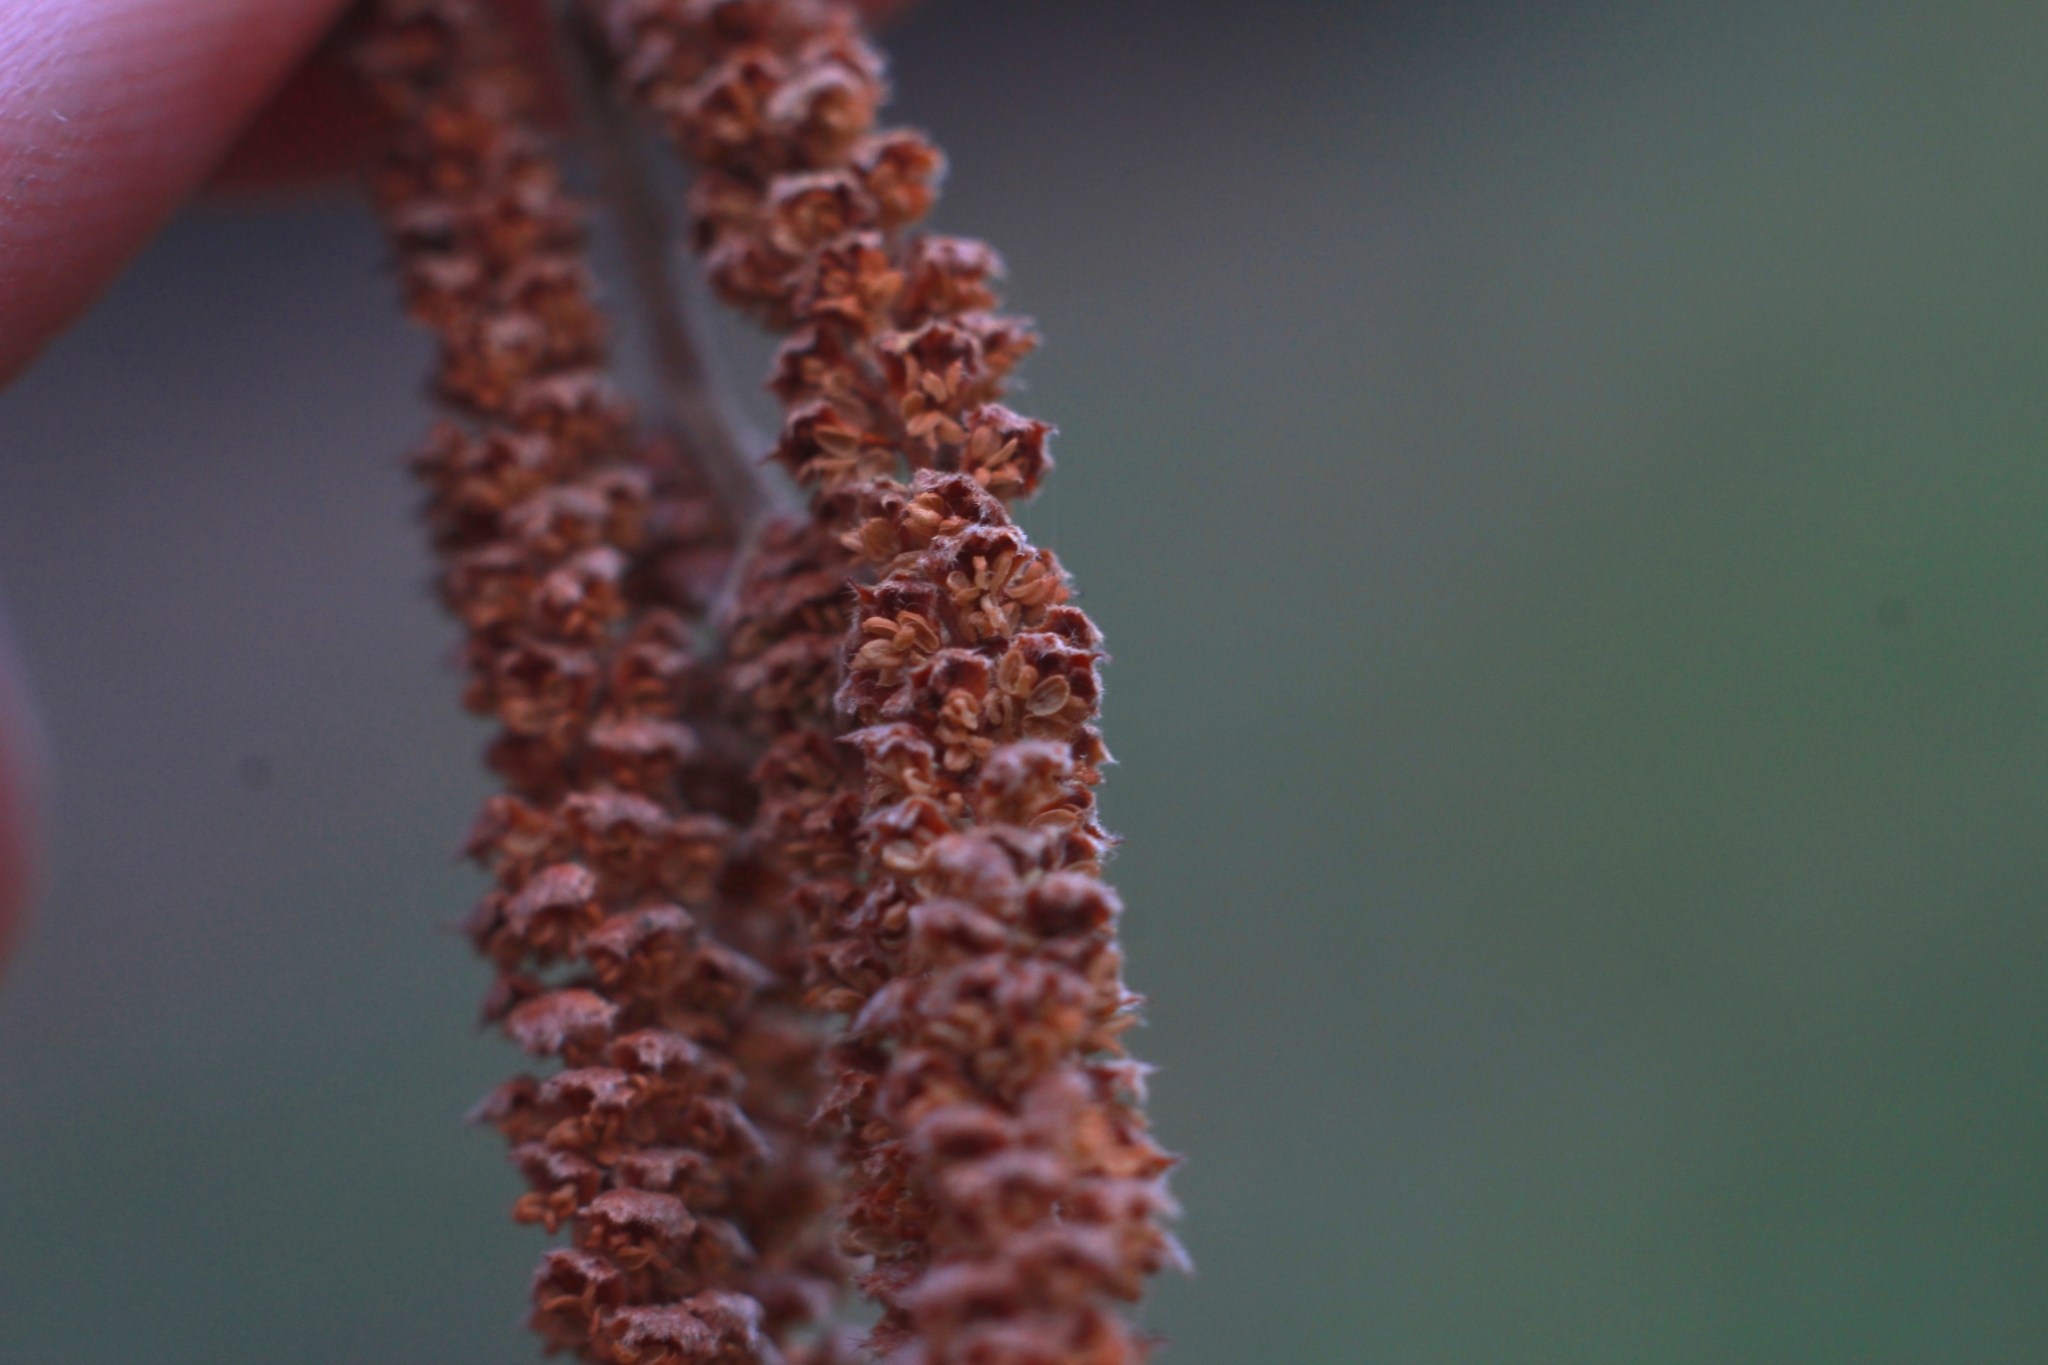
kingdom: Plantae
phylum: Tracheophyta
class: Magnoliopsida
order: Fagales
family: Betulaceae
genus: Corylus
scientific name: Corylus avellana
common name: European hazel
